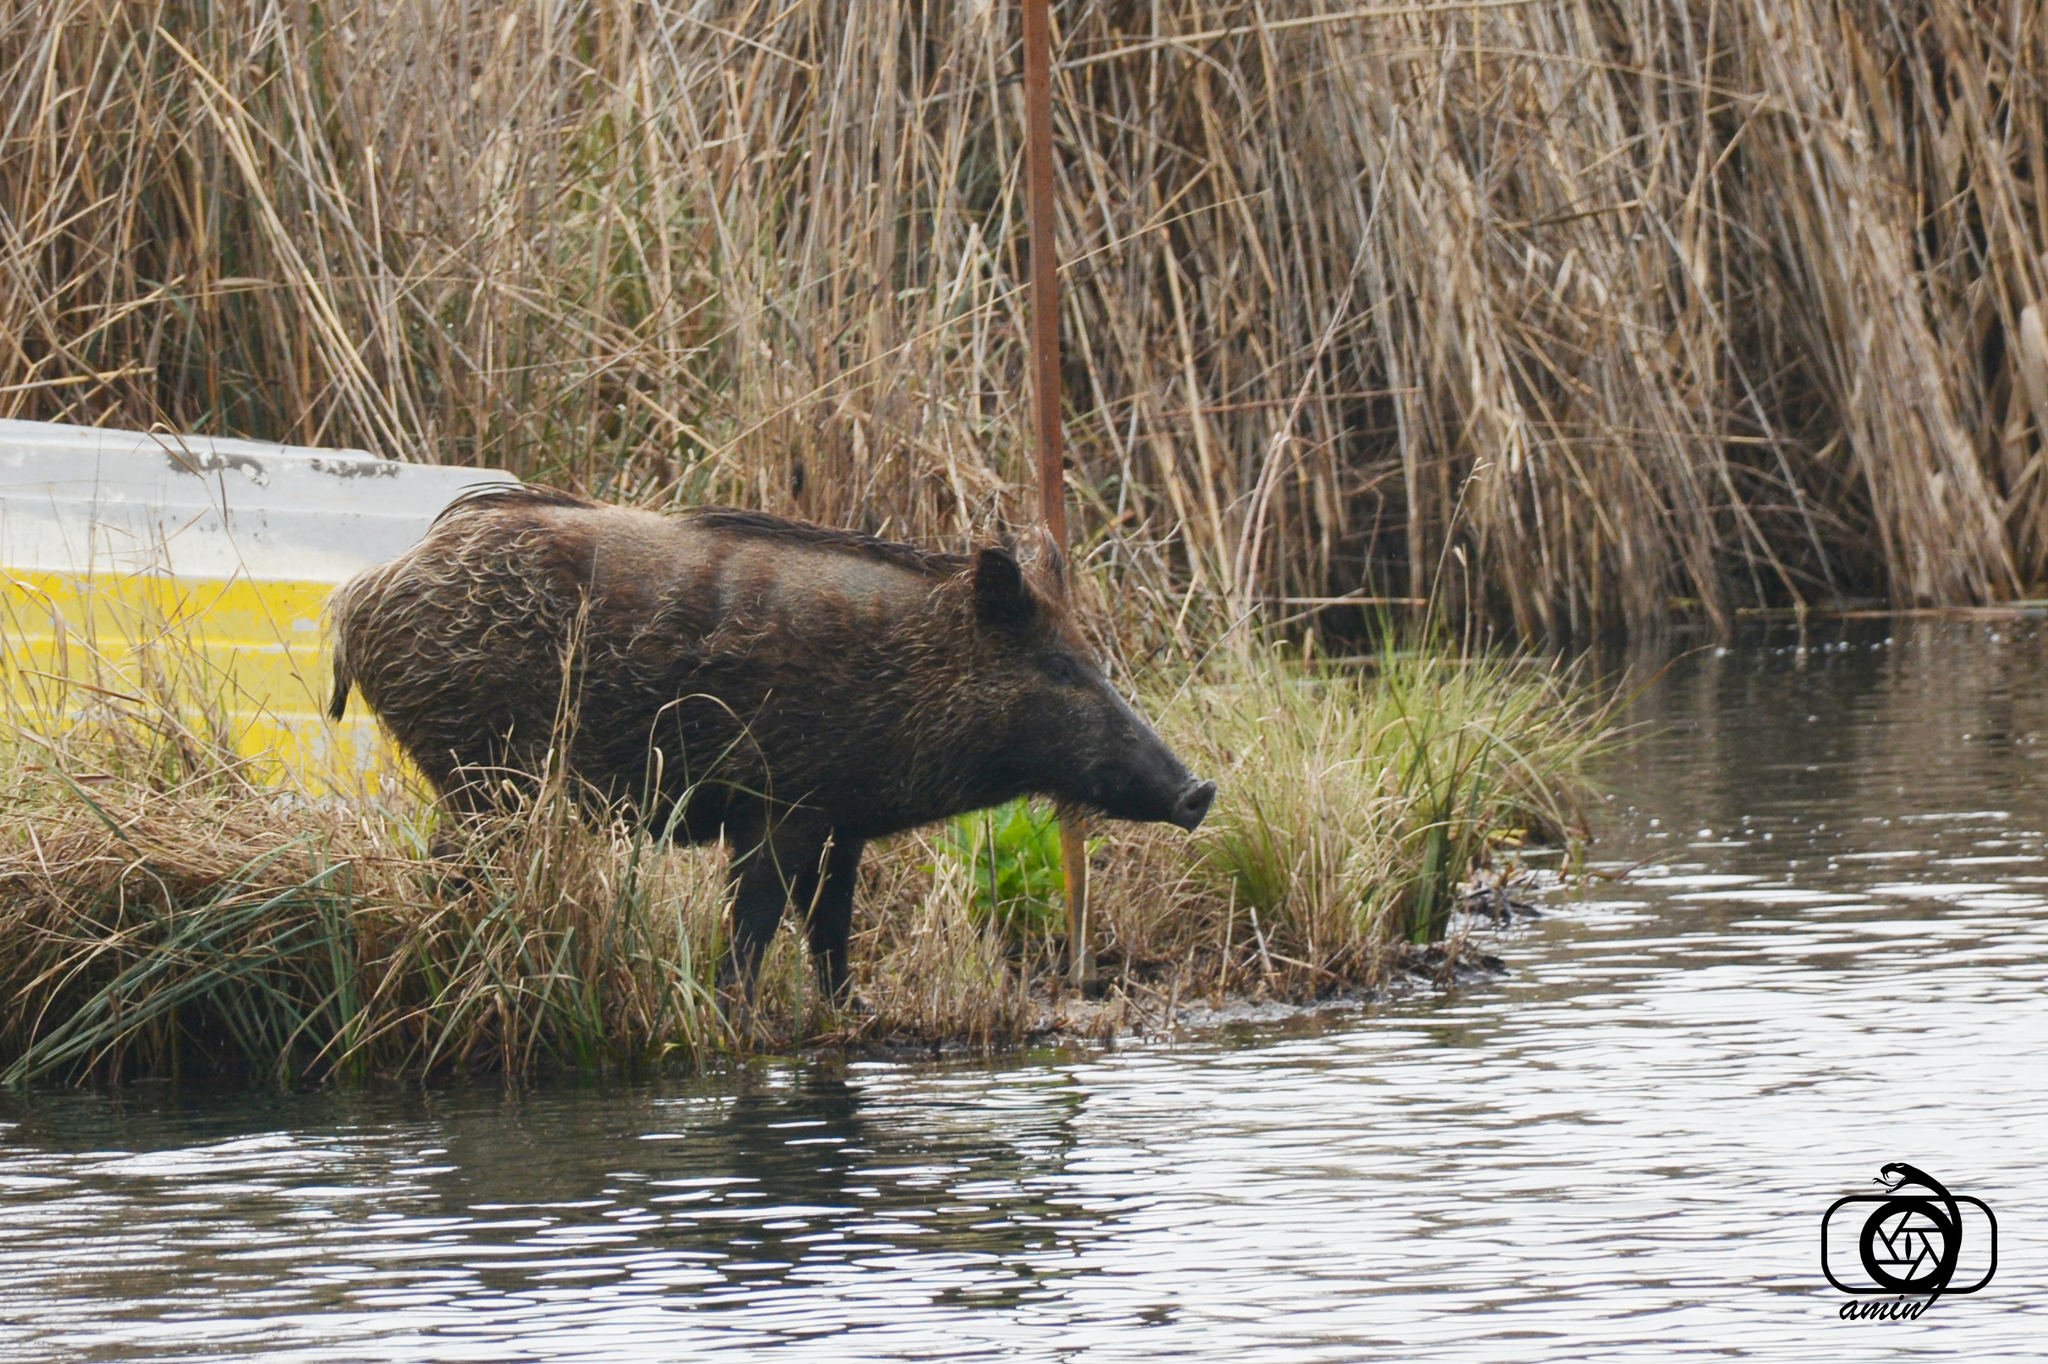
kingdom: Animalia
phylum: Chordata
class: Mammalia
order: Artiodactyla
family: Suidae
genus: Sus
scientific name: Sus scrofa
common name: Wild boar
